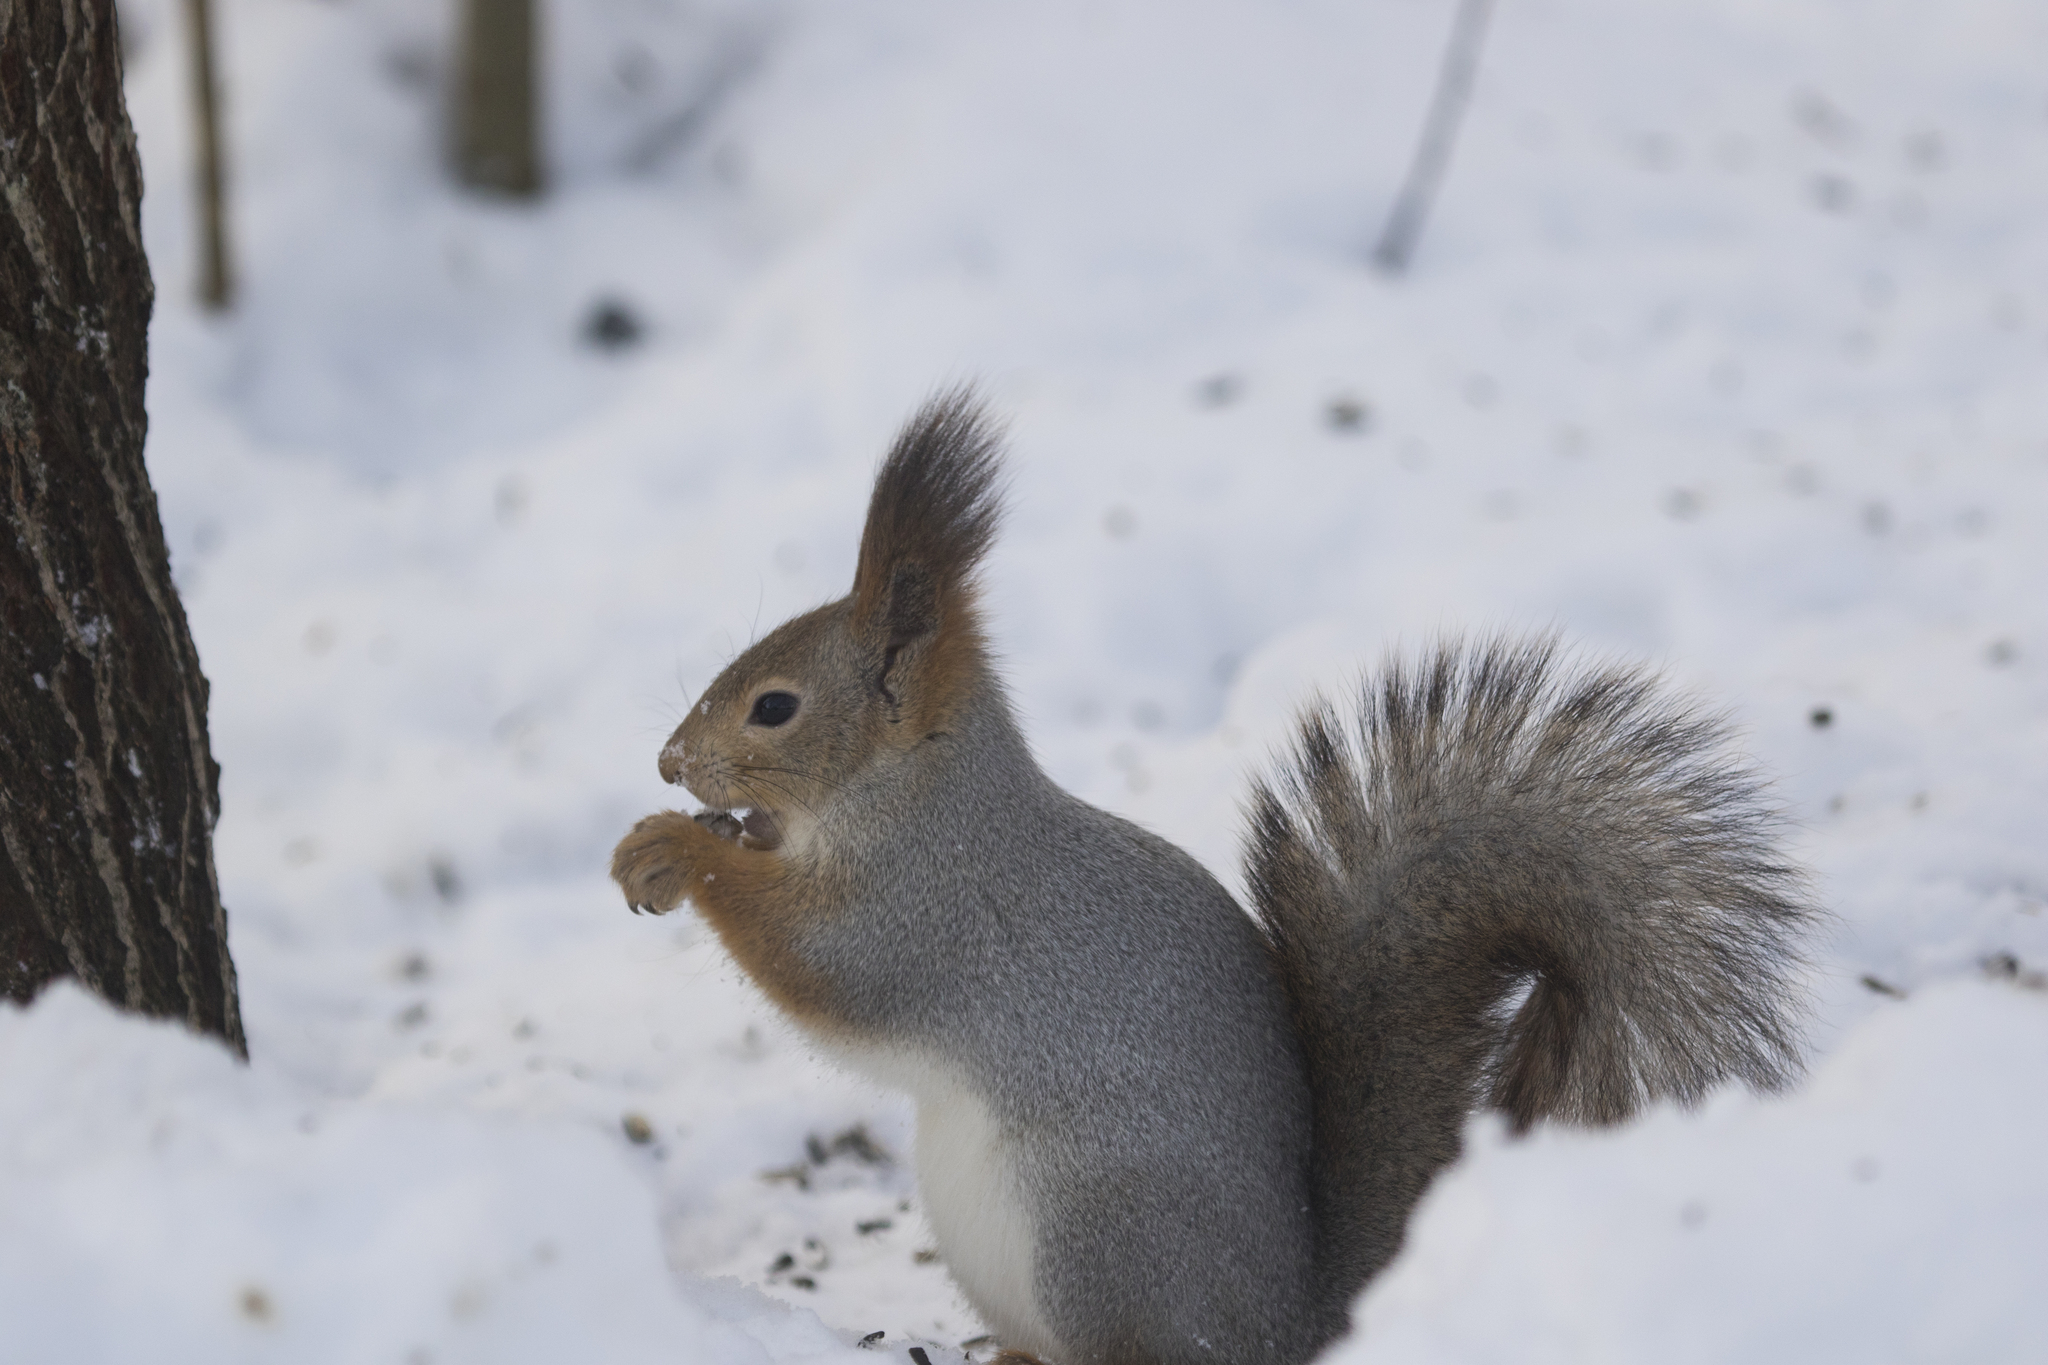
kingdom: Animalia
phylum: Chordata
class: Mammalia
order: Rodentia
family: Sciuridae
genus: Sciurus
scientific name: Sciurus vulgaris
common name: Eurasian red squirrel
